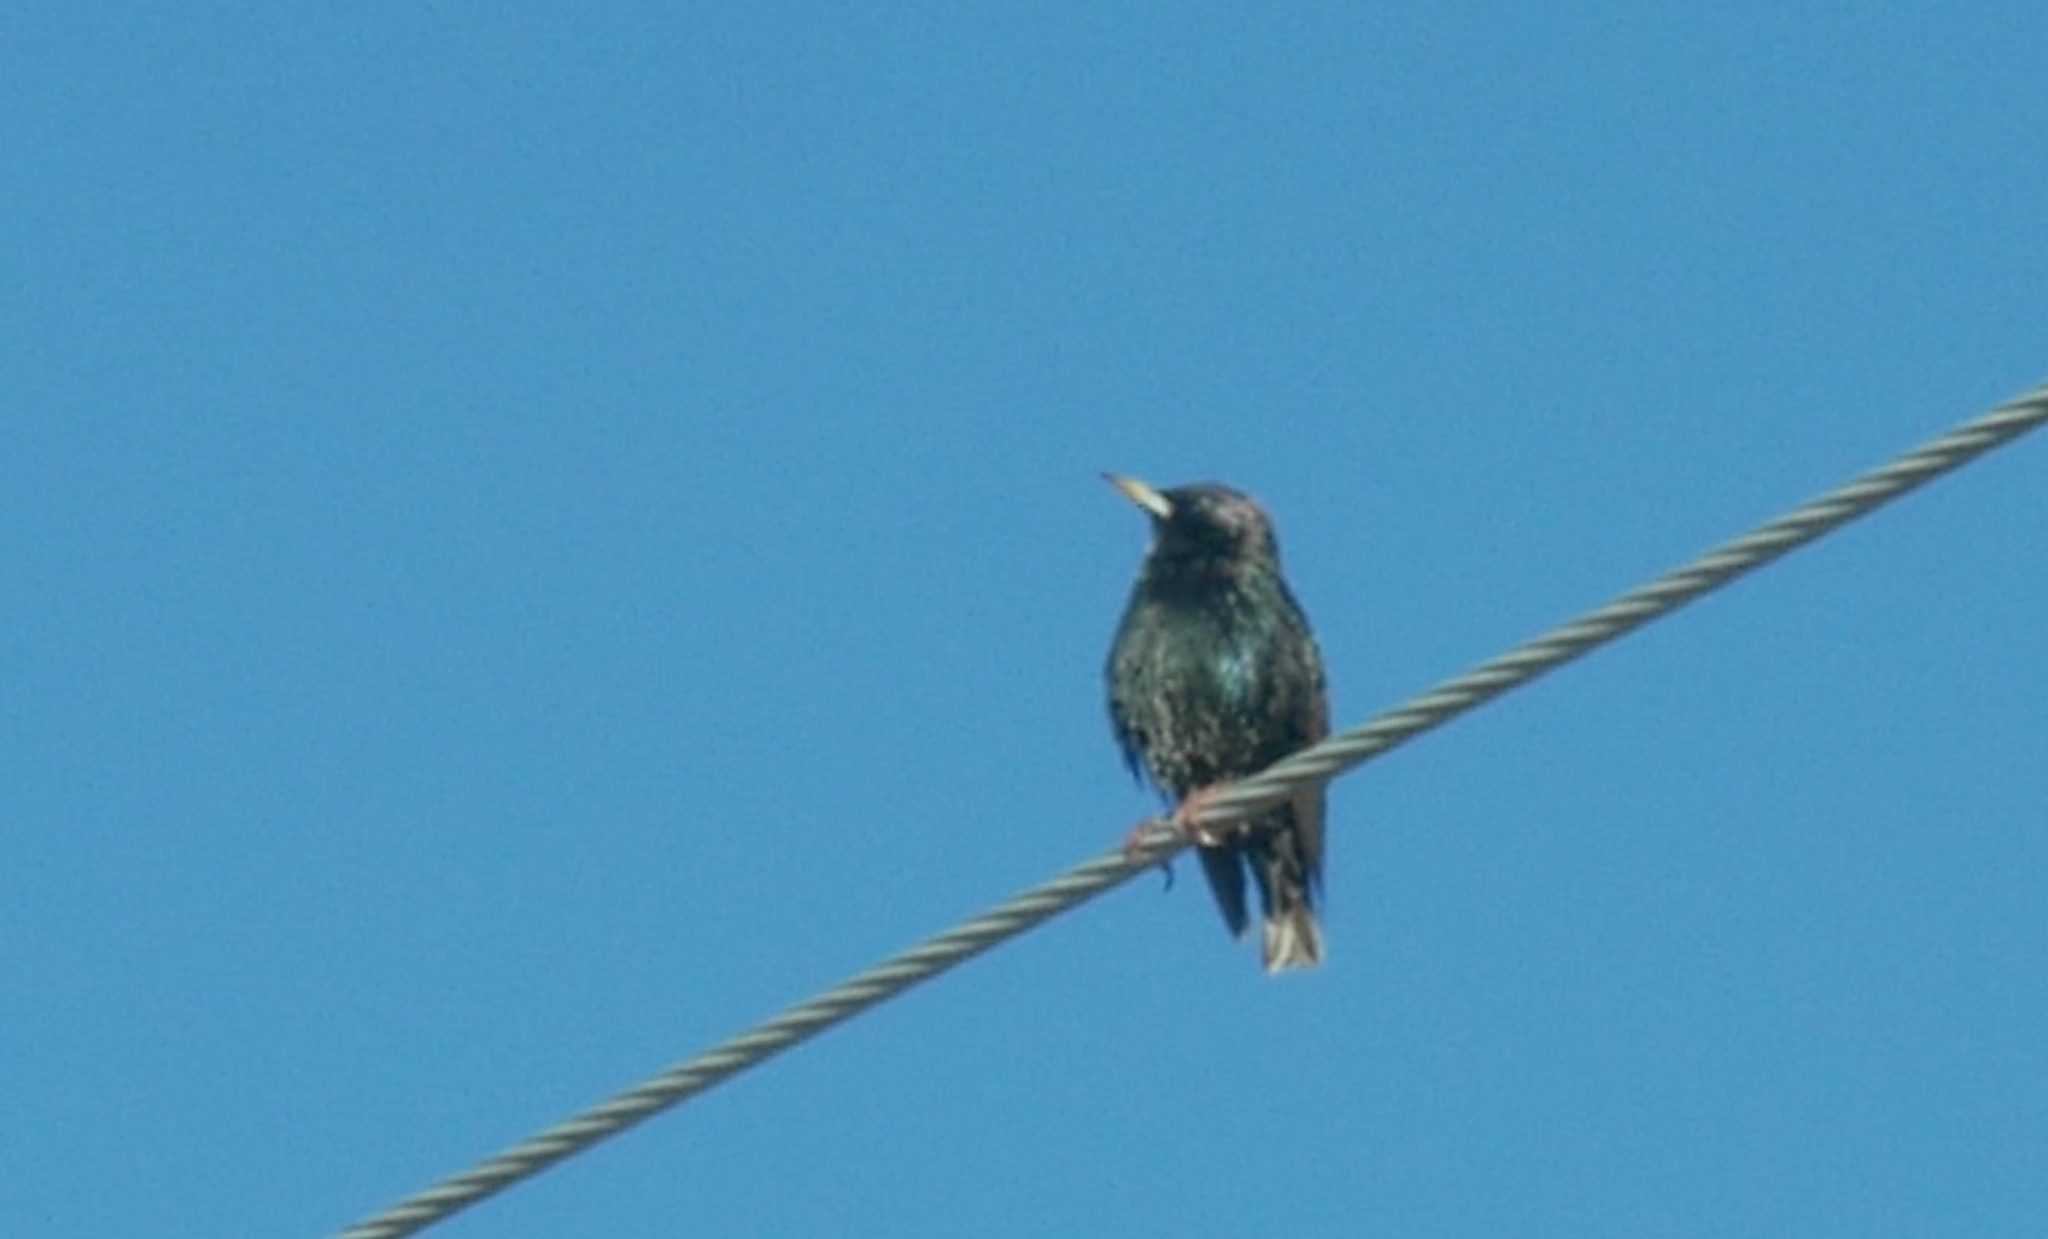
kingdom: Animalia
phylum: Chordata
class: Aves
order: Passeriformes
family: Sturnidae
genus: Sturnus
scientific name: Sturnus vulgaris
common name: Common starling
